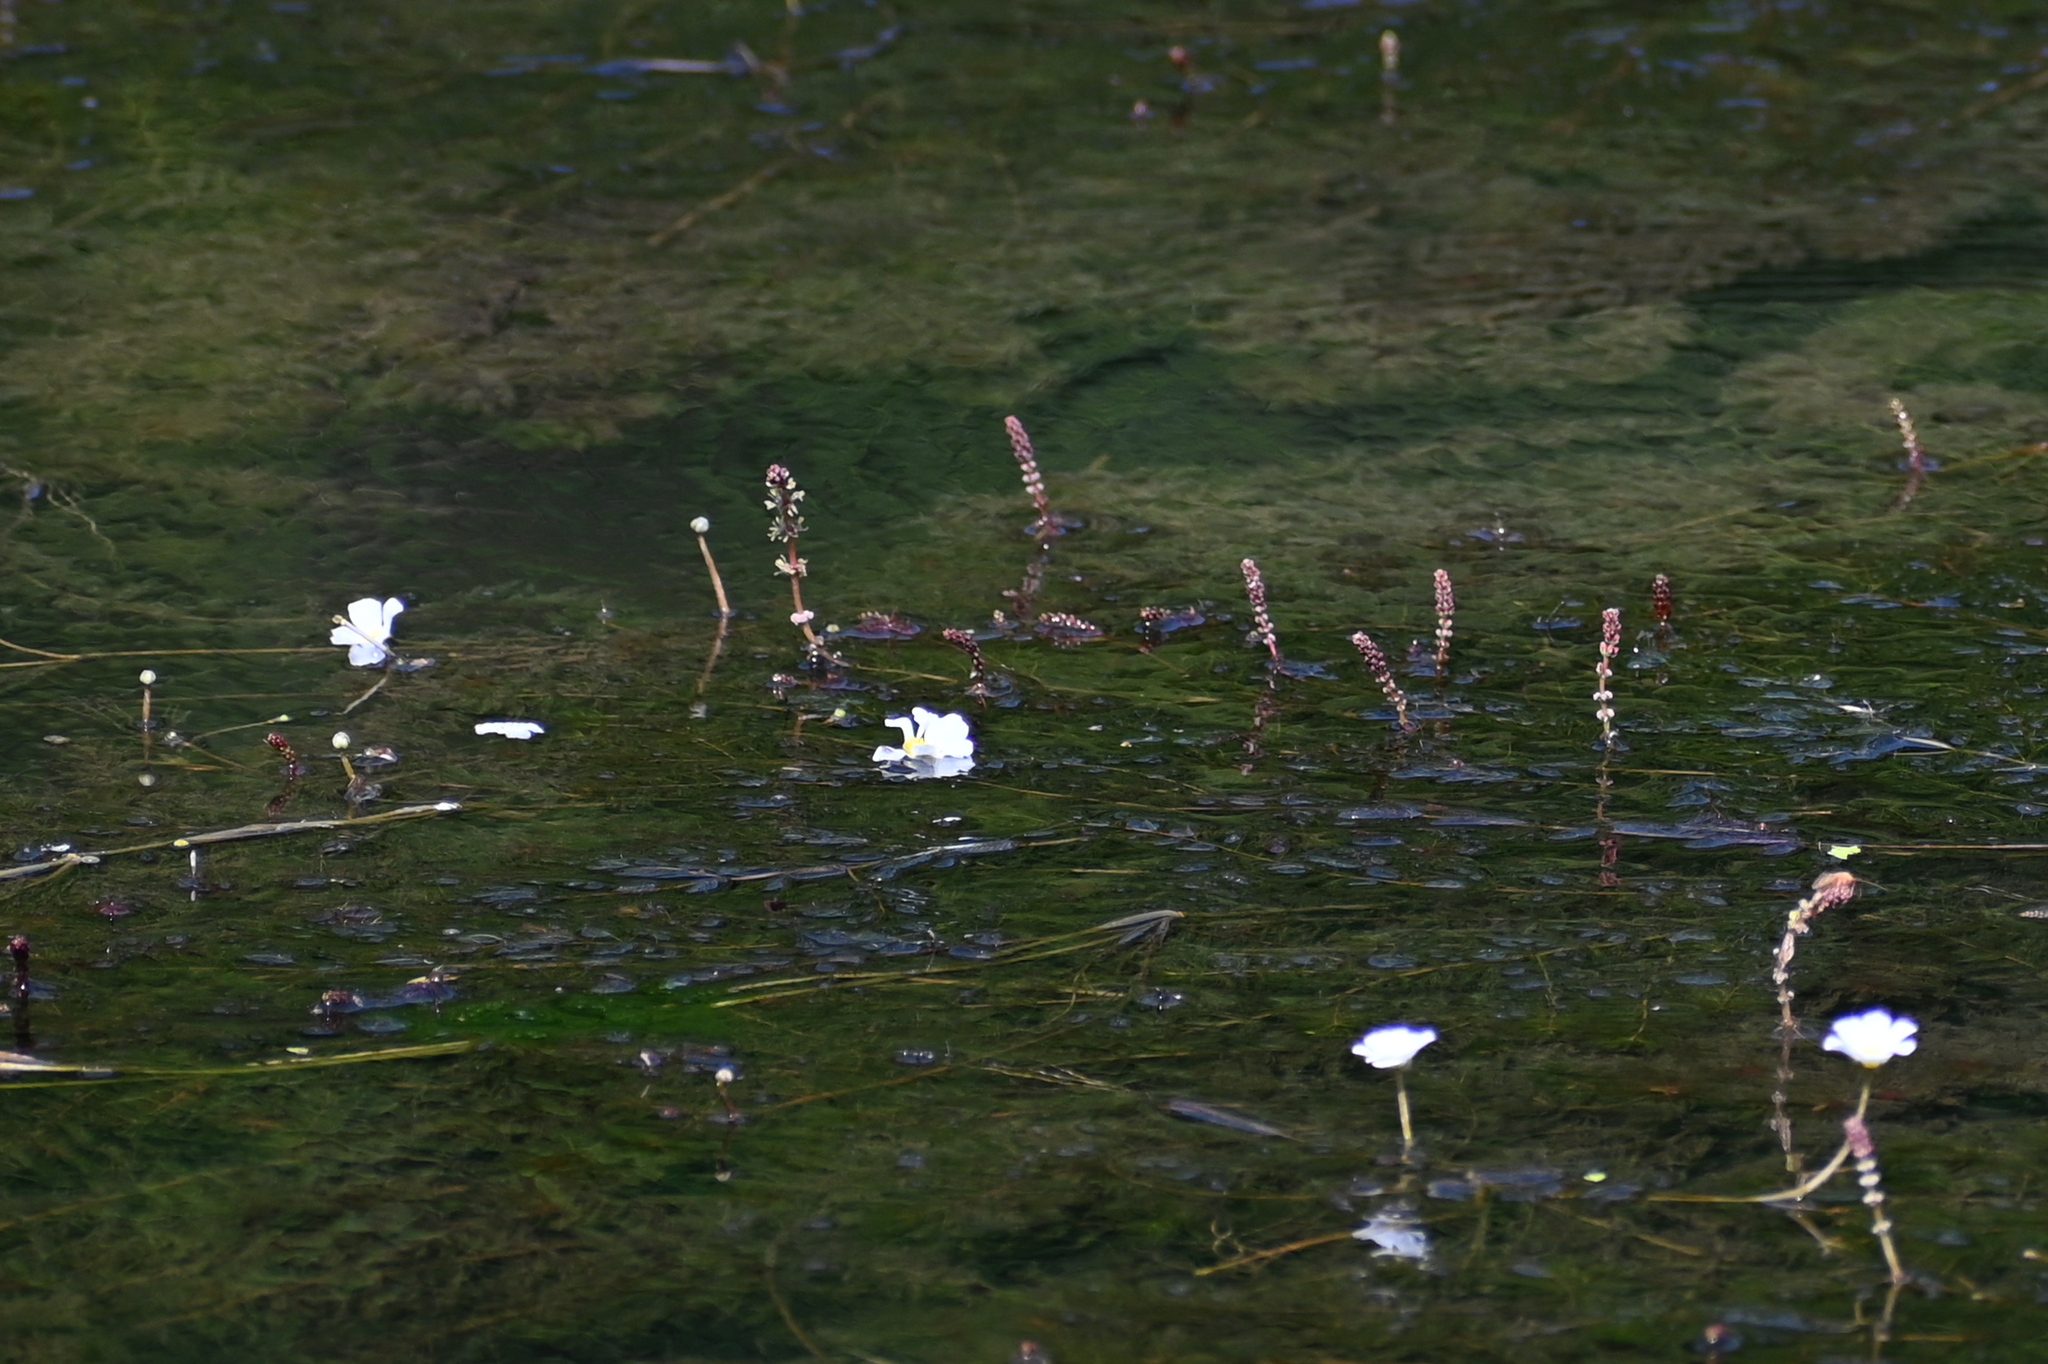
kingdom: Plantae
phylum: Tracheophyta
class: Magnoliopsida
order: Ranunculales
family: Ranunculaceae
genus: Ranunculus
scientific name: Ranunculus fluitans
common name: River water-crowfoot
